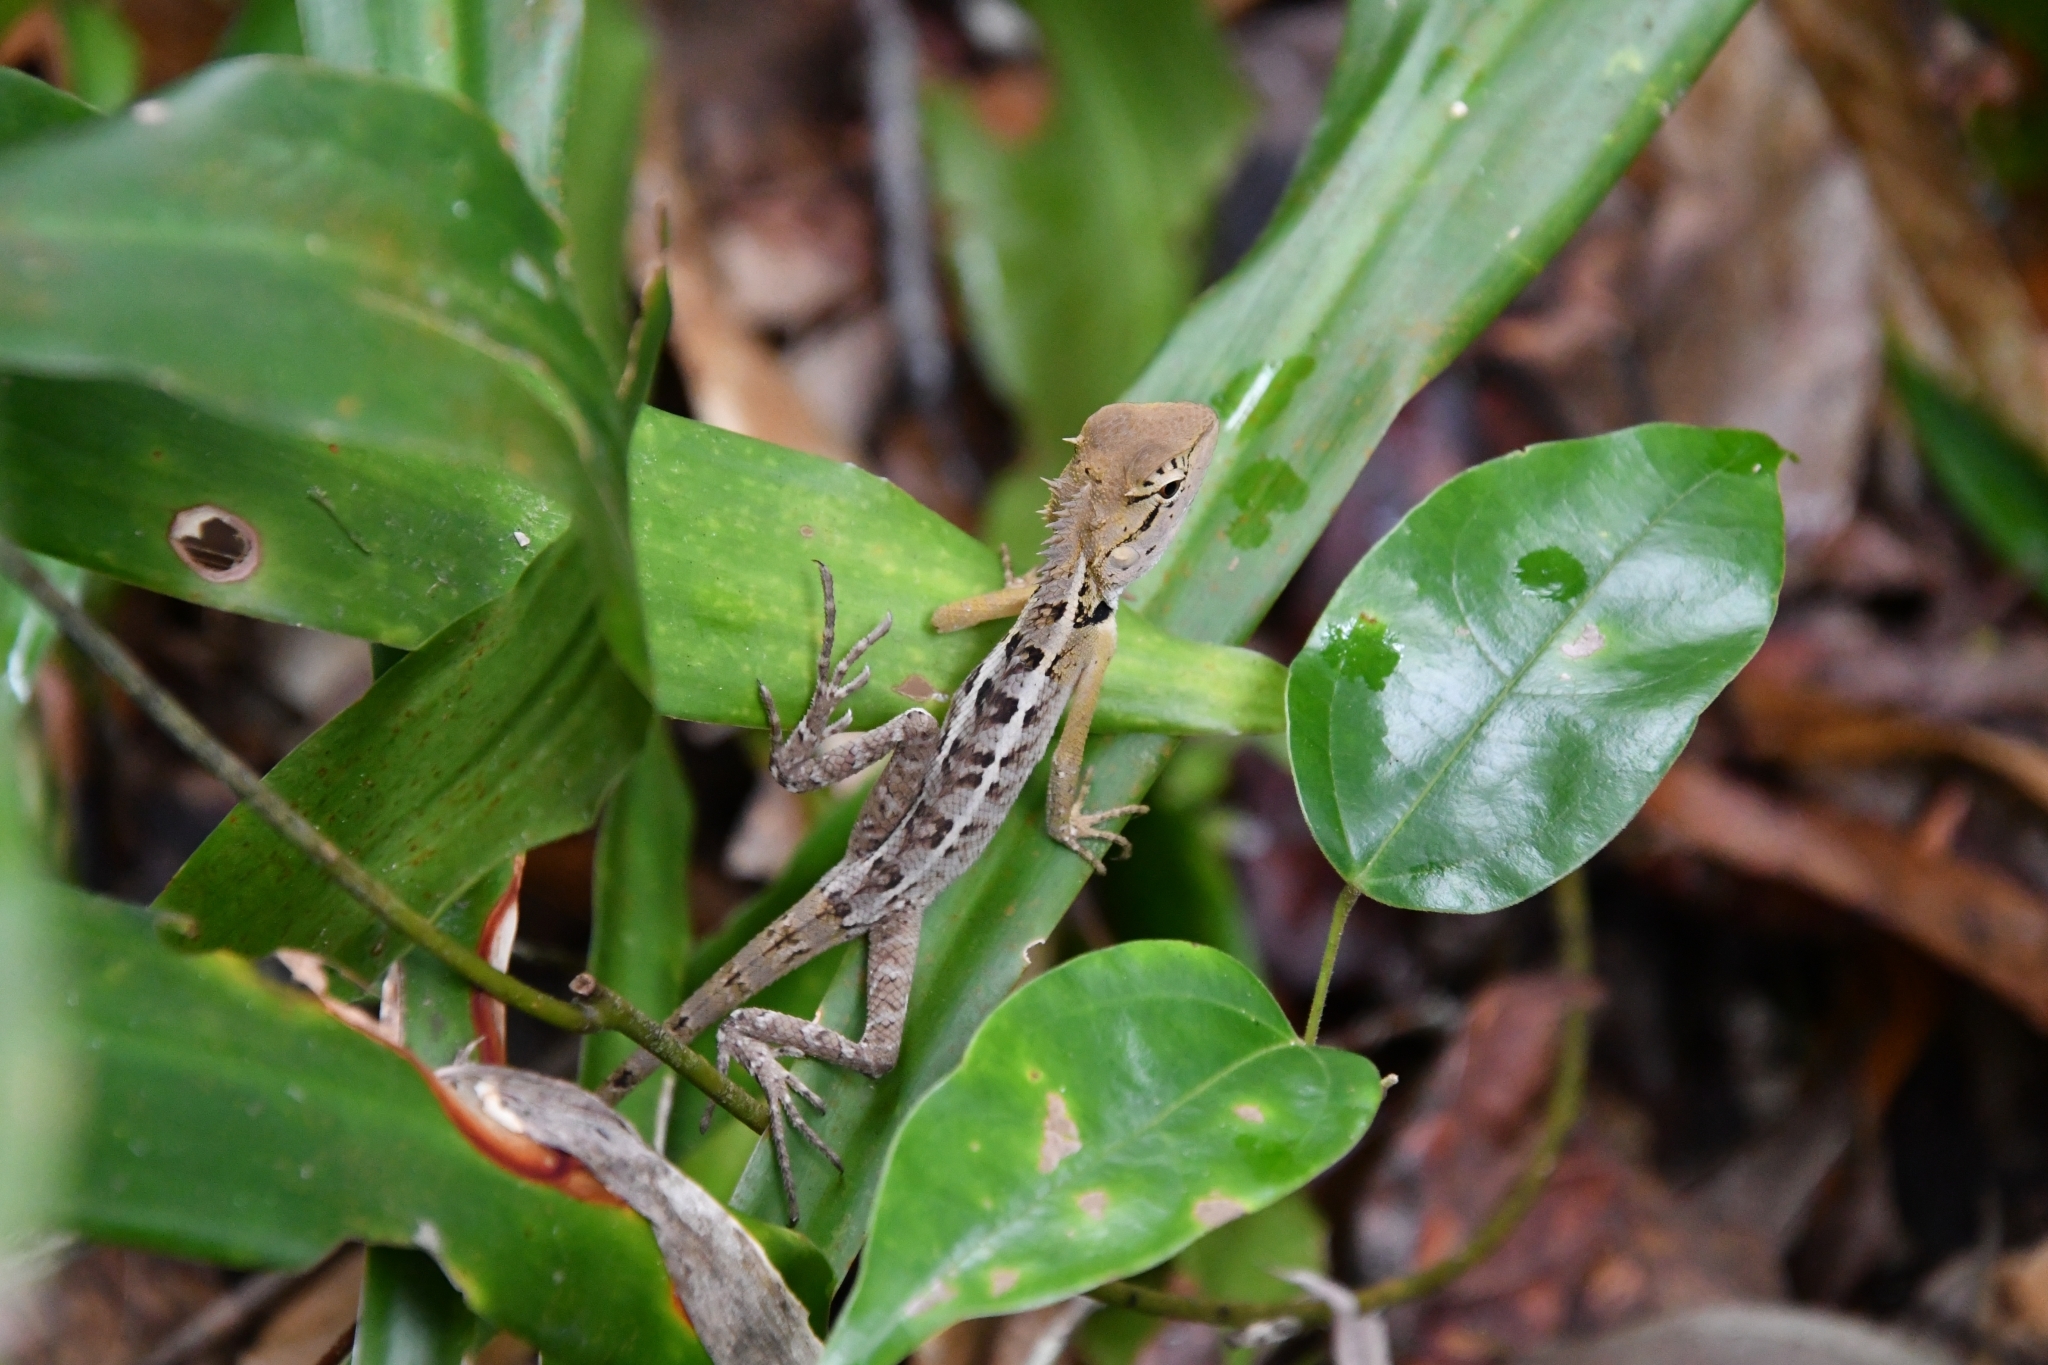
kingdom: Animalia
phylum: Chordata
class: Squamata
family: Agamidae
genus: Calotes
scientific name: Calotes emma
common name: Thailand bloodsucker
